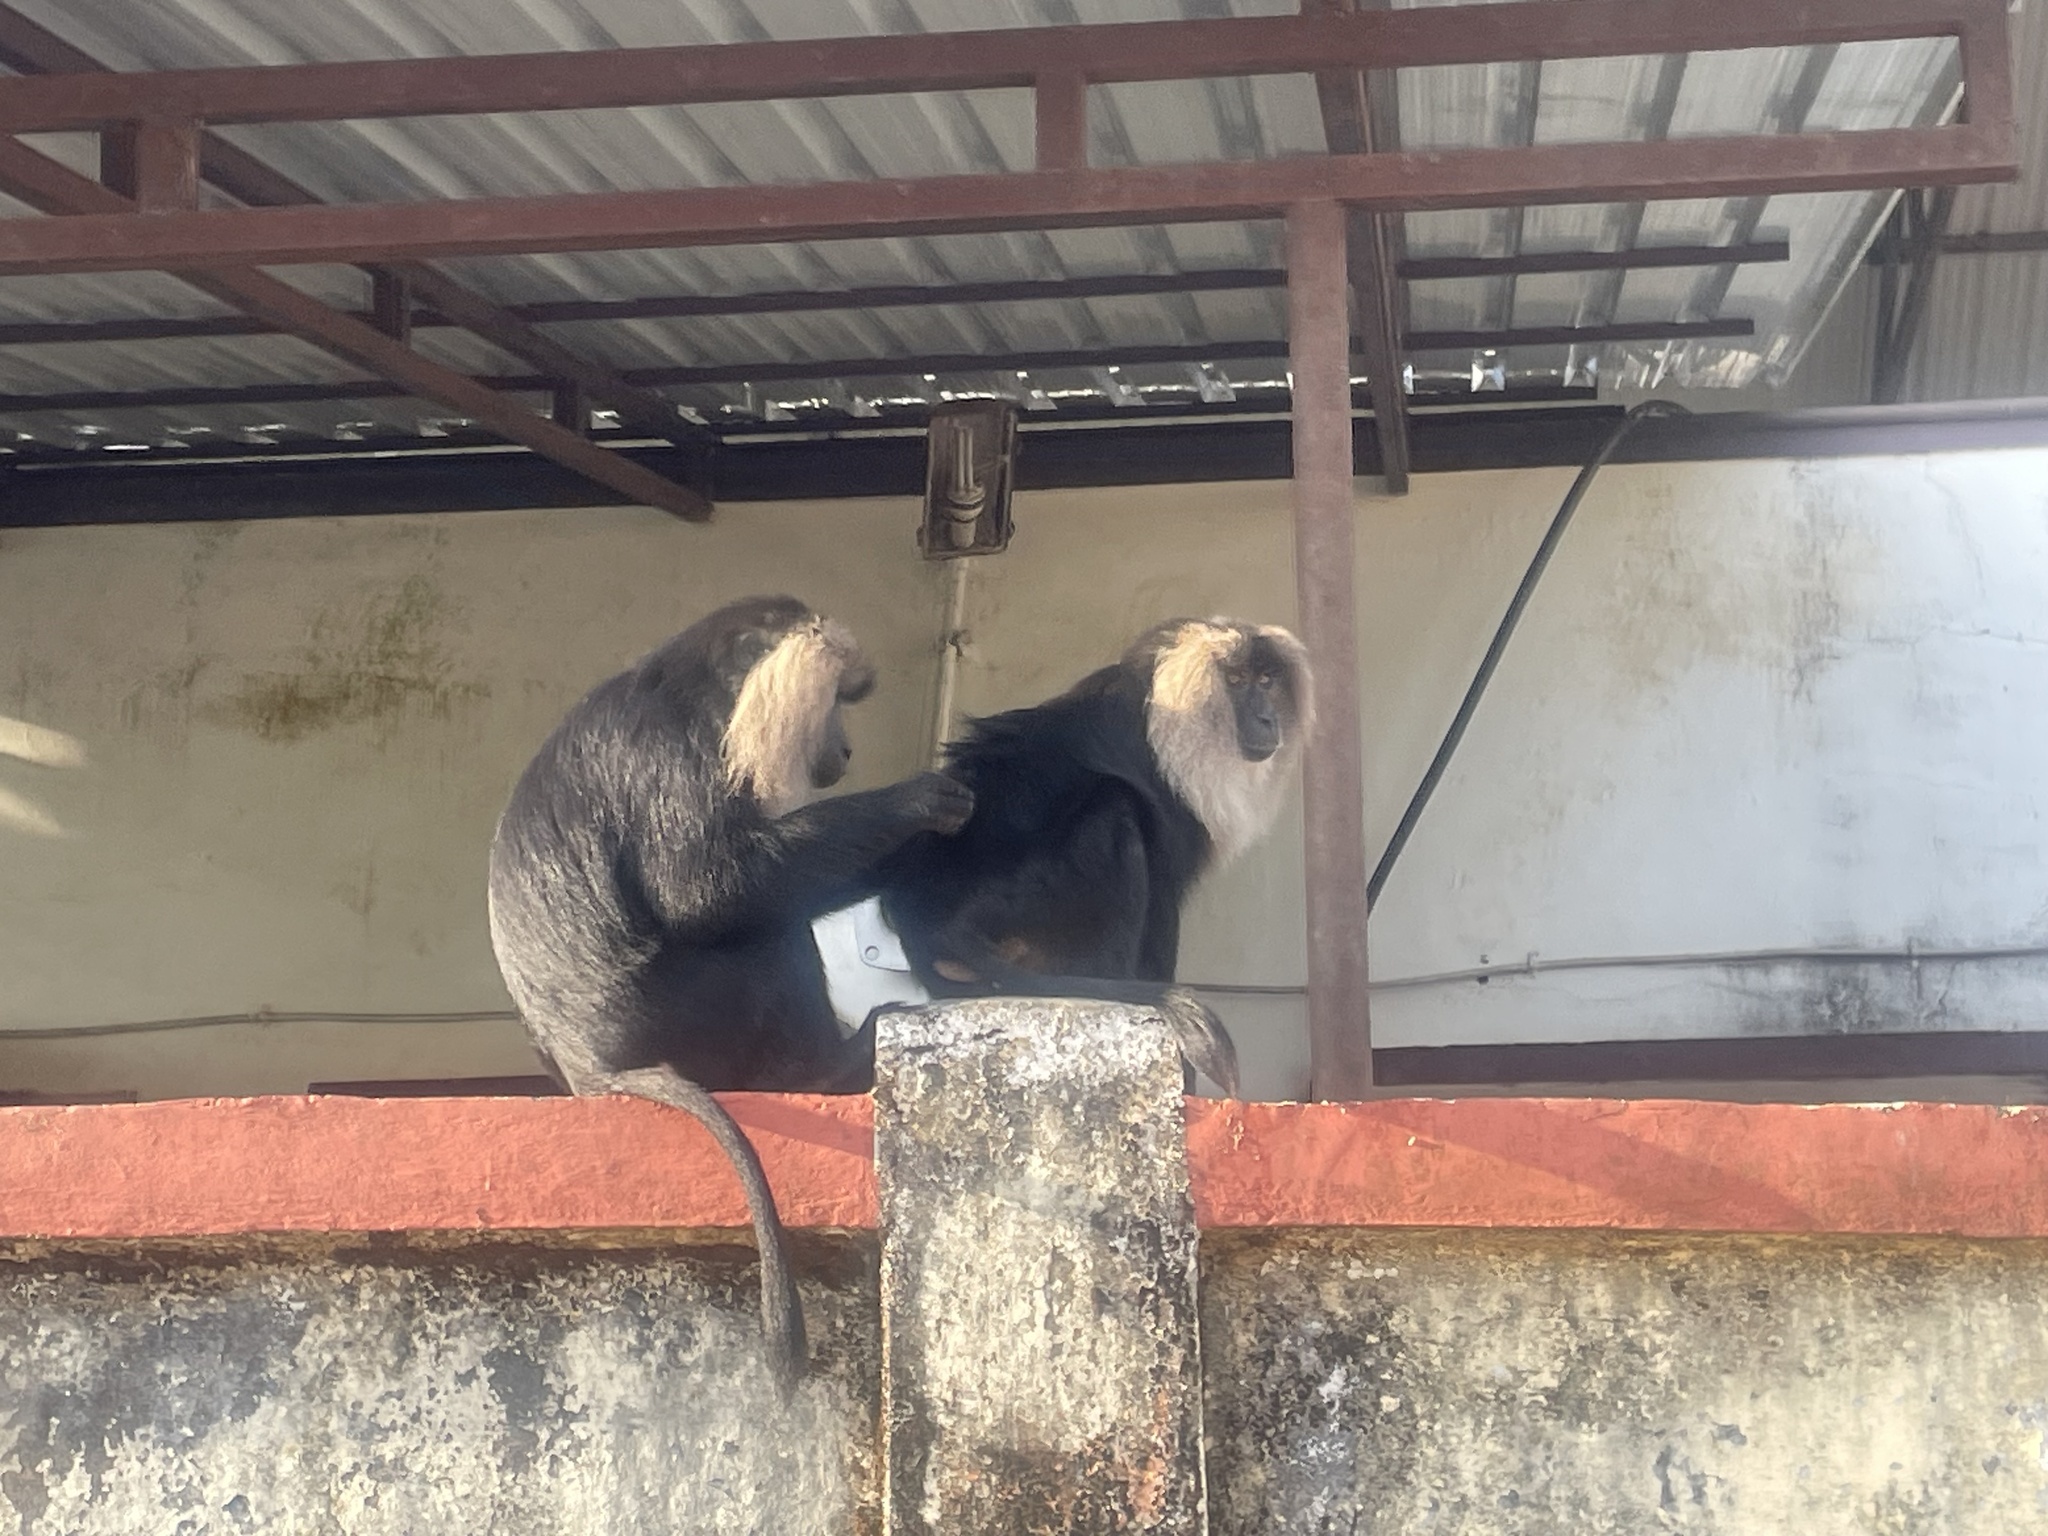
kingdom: Animalia
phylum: Chordata
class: Mammalia
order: Primates
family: Cercopithecidae
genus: Macaca
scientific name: Macaca silenus
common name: Lion-tailed macaque
